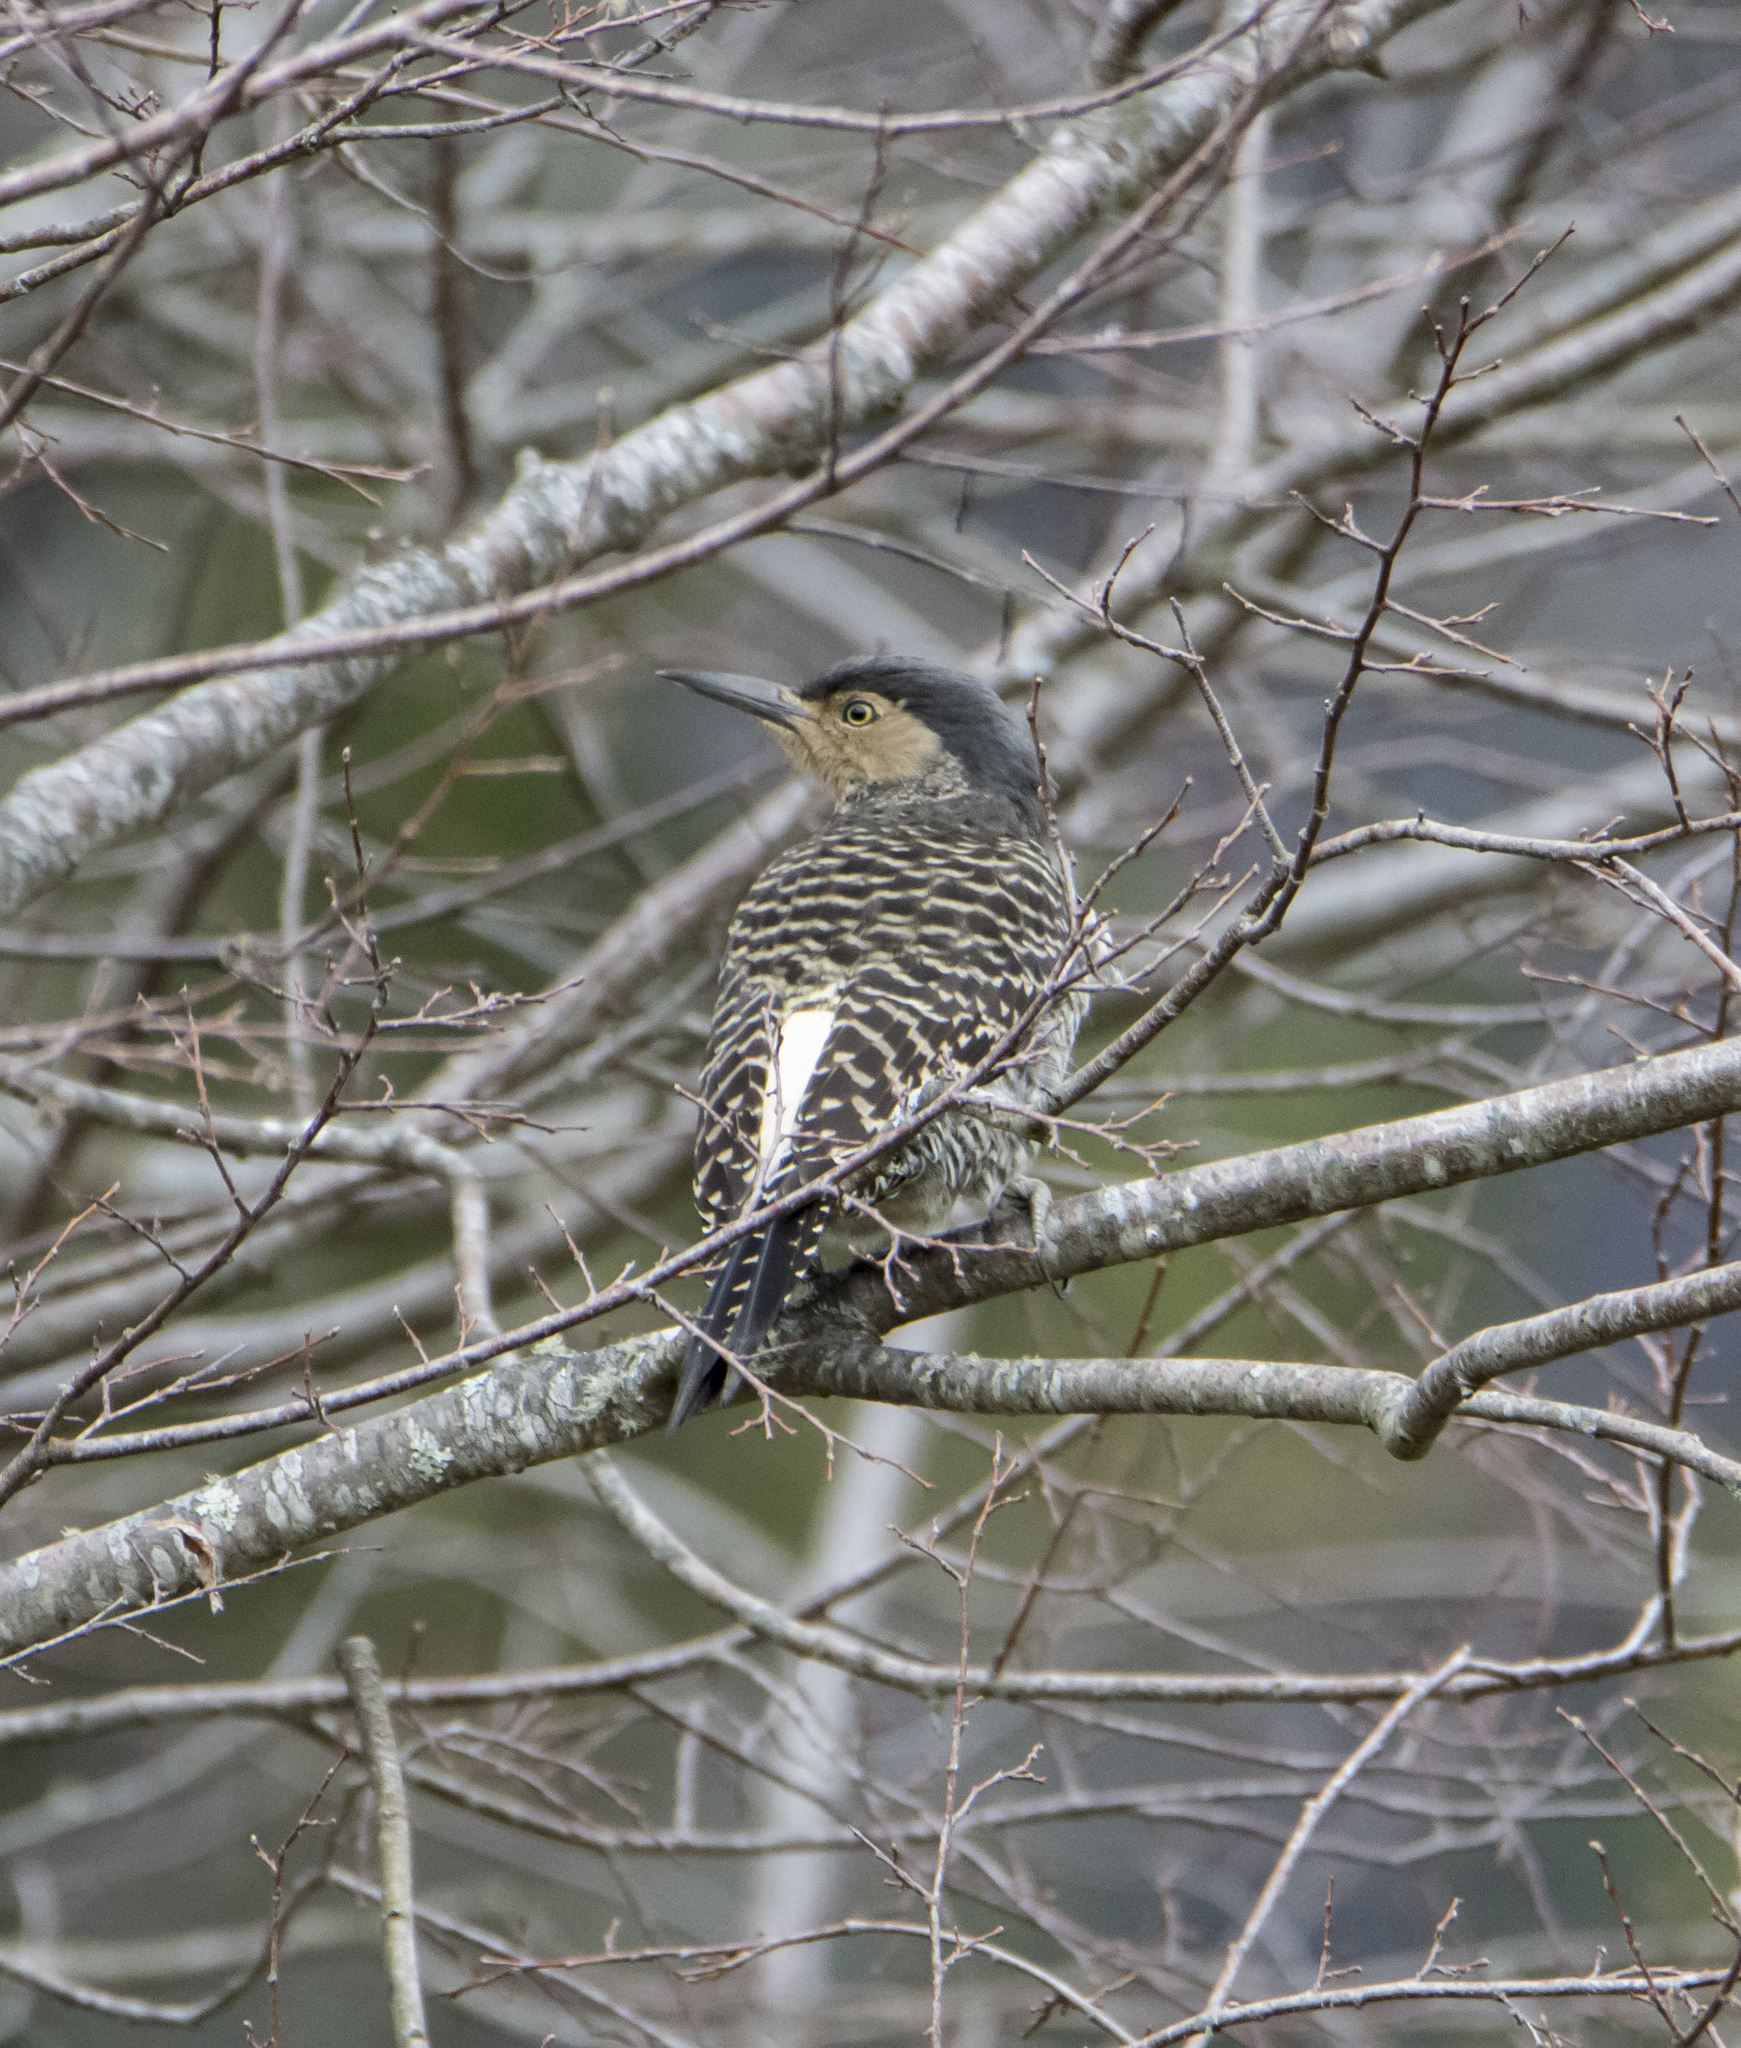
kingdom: Animalia
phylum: Chordata
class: Aves
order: Piciformes
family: Picidae
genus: Colaptes
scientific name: Colaptes pitius
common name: Chilean flicker
